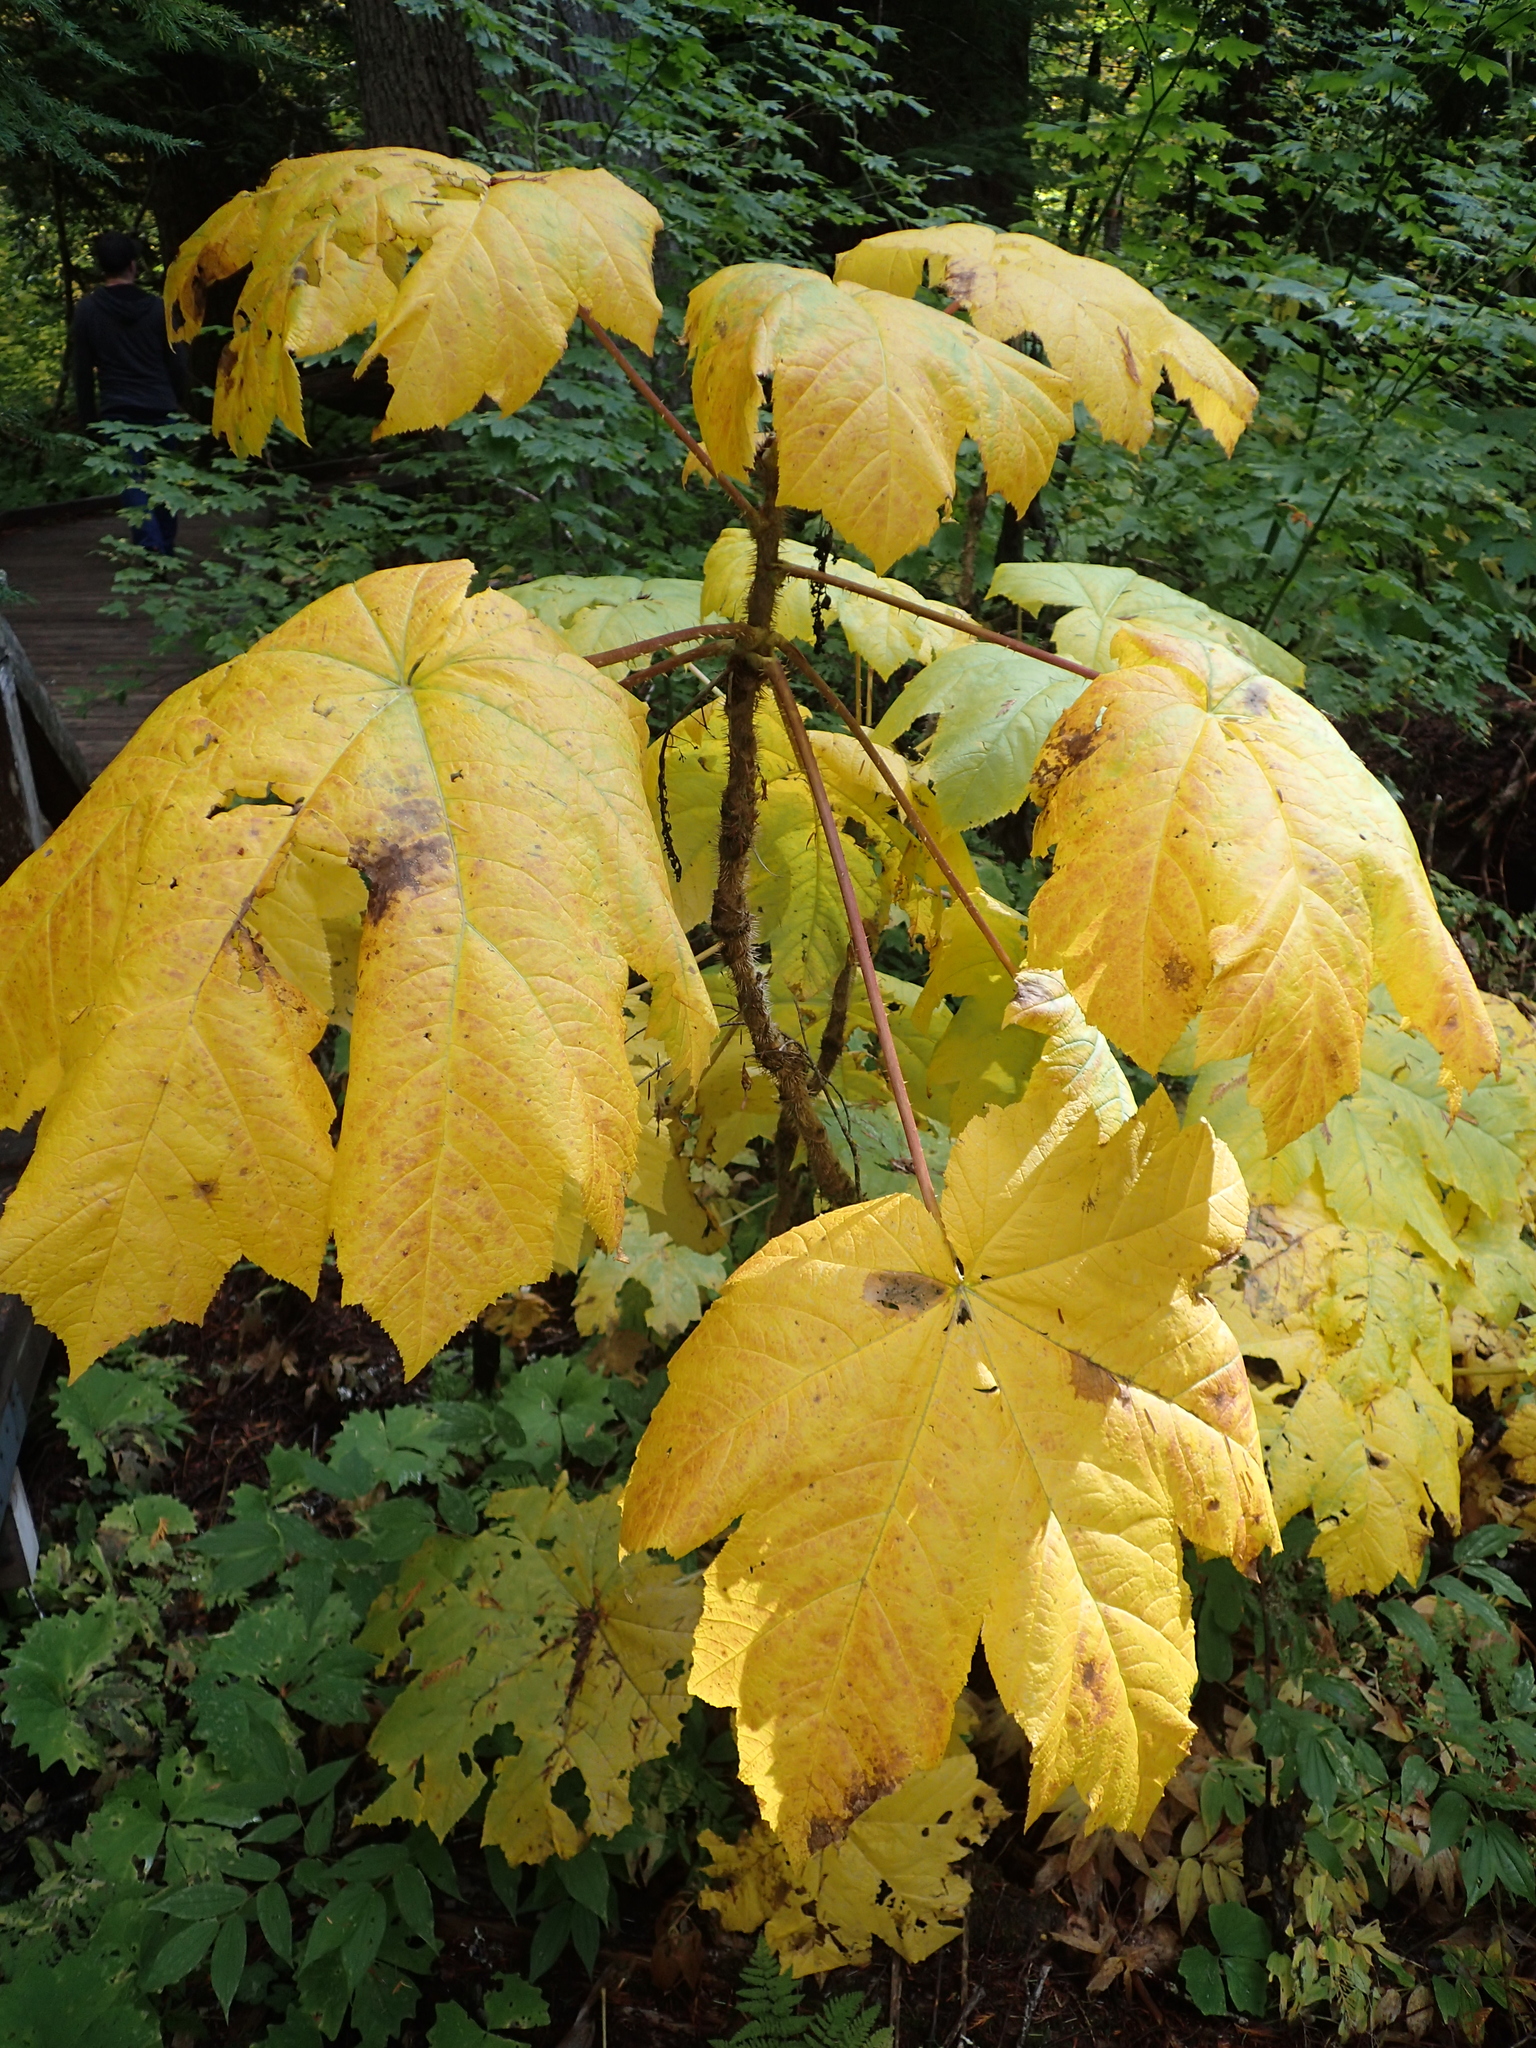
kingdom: Plantae
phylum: Tracheophyta
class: Magnoliopsida
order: Apiales
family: Araliaceae
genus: Oplopanax
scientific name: Oplopanax horridus
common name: Devil's walking-stick
